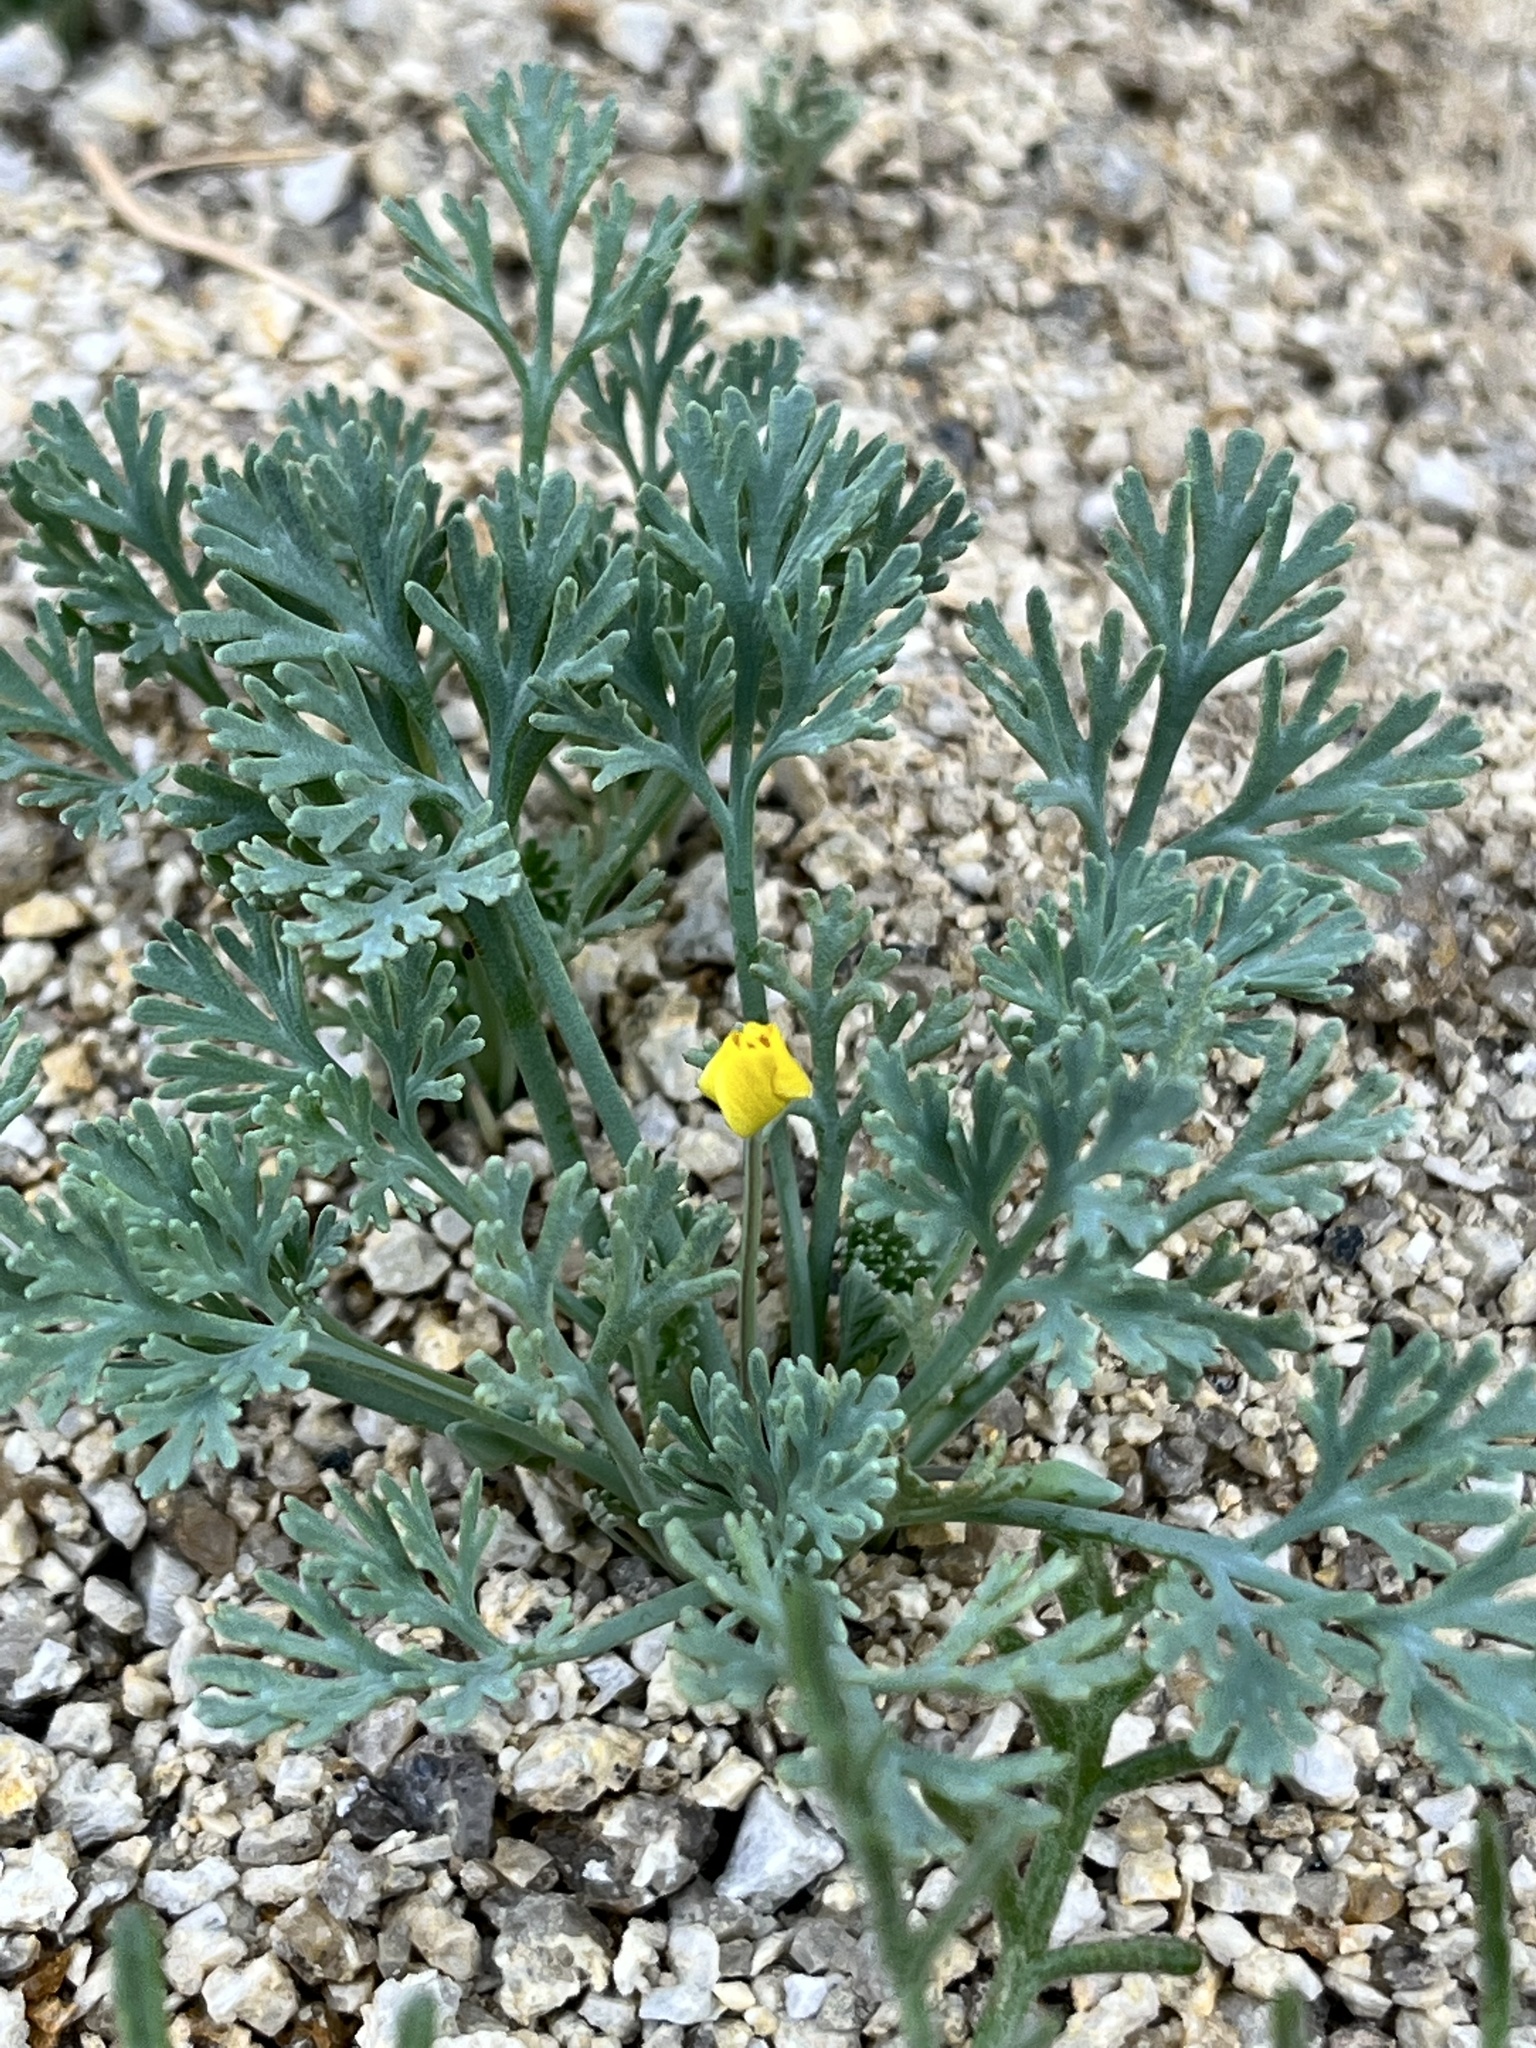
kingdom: Plantae
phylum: Tracheophyta
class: Magnoliopsida
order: Ranunculales
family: Papaveraceae
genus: Eschscholzia
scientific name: Eschscholzia minutiflora
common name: Small-flower california-poppy
